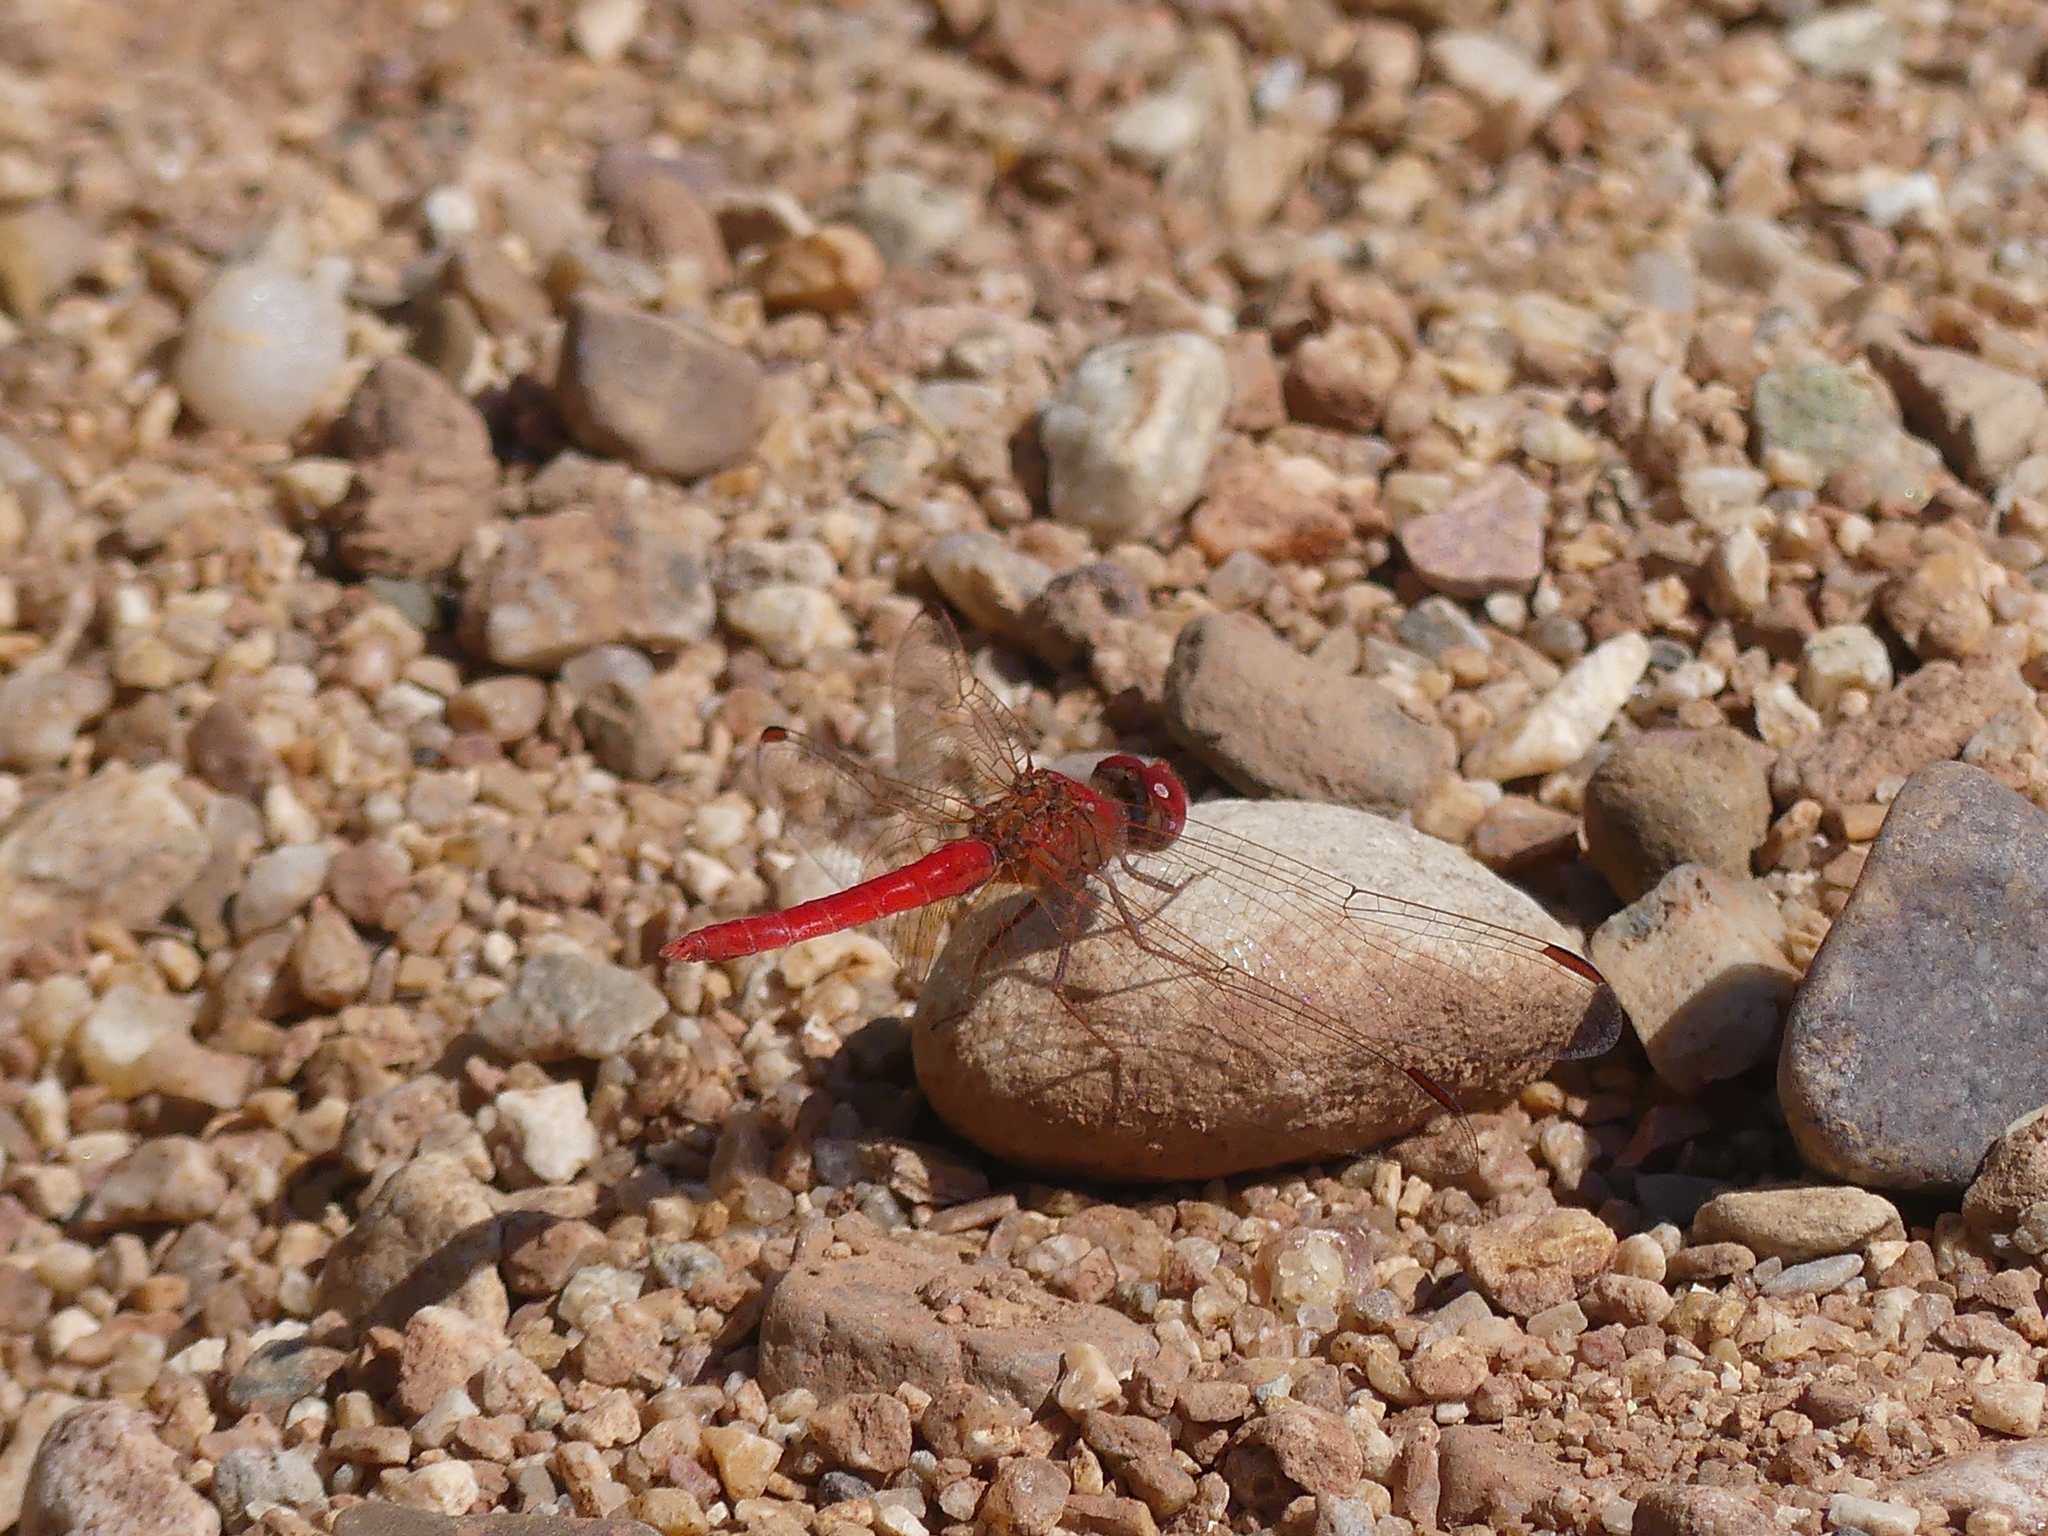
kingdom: Animalia
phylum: Arthropoda
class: Insecta
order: Odonata
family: Libellulidae
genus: Diplacodes
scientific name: Diplacodes haematodes
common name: Scarlet percher
